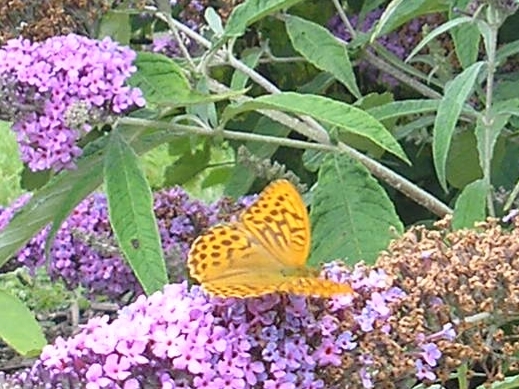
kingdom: Animalia
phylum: Arthropoda
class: Insecta
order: Lepidoptera
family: Nymphalidae
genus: Argynnis
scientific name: Argynnis paphia
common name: Silver-washed fritillary
